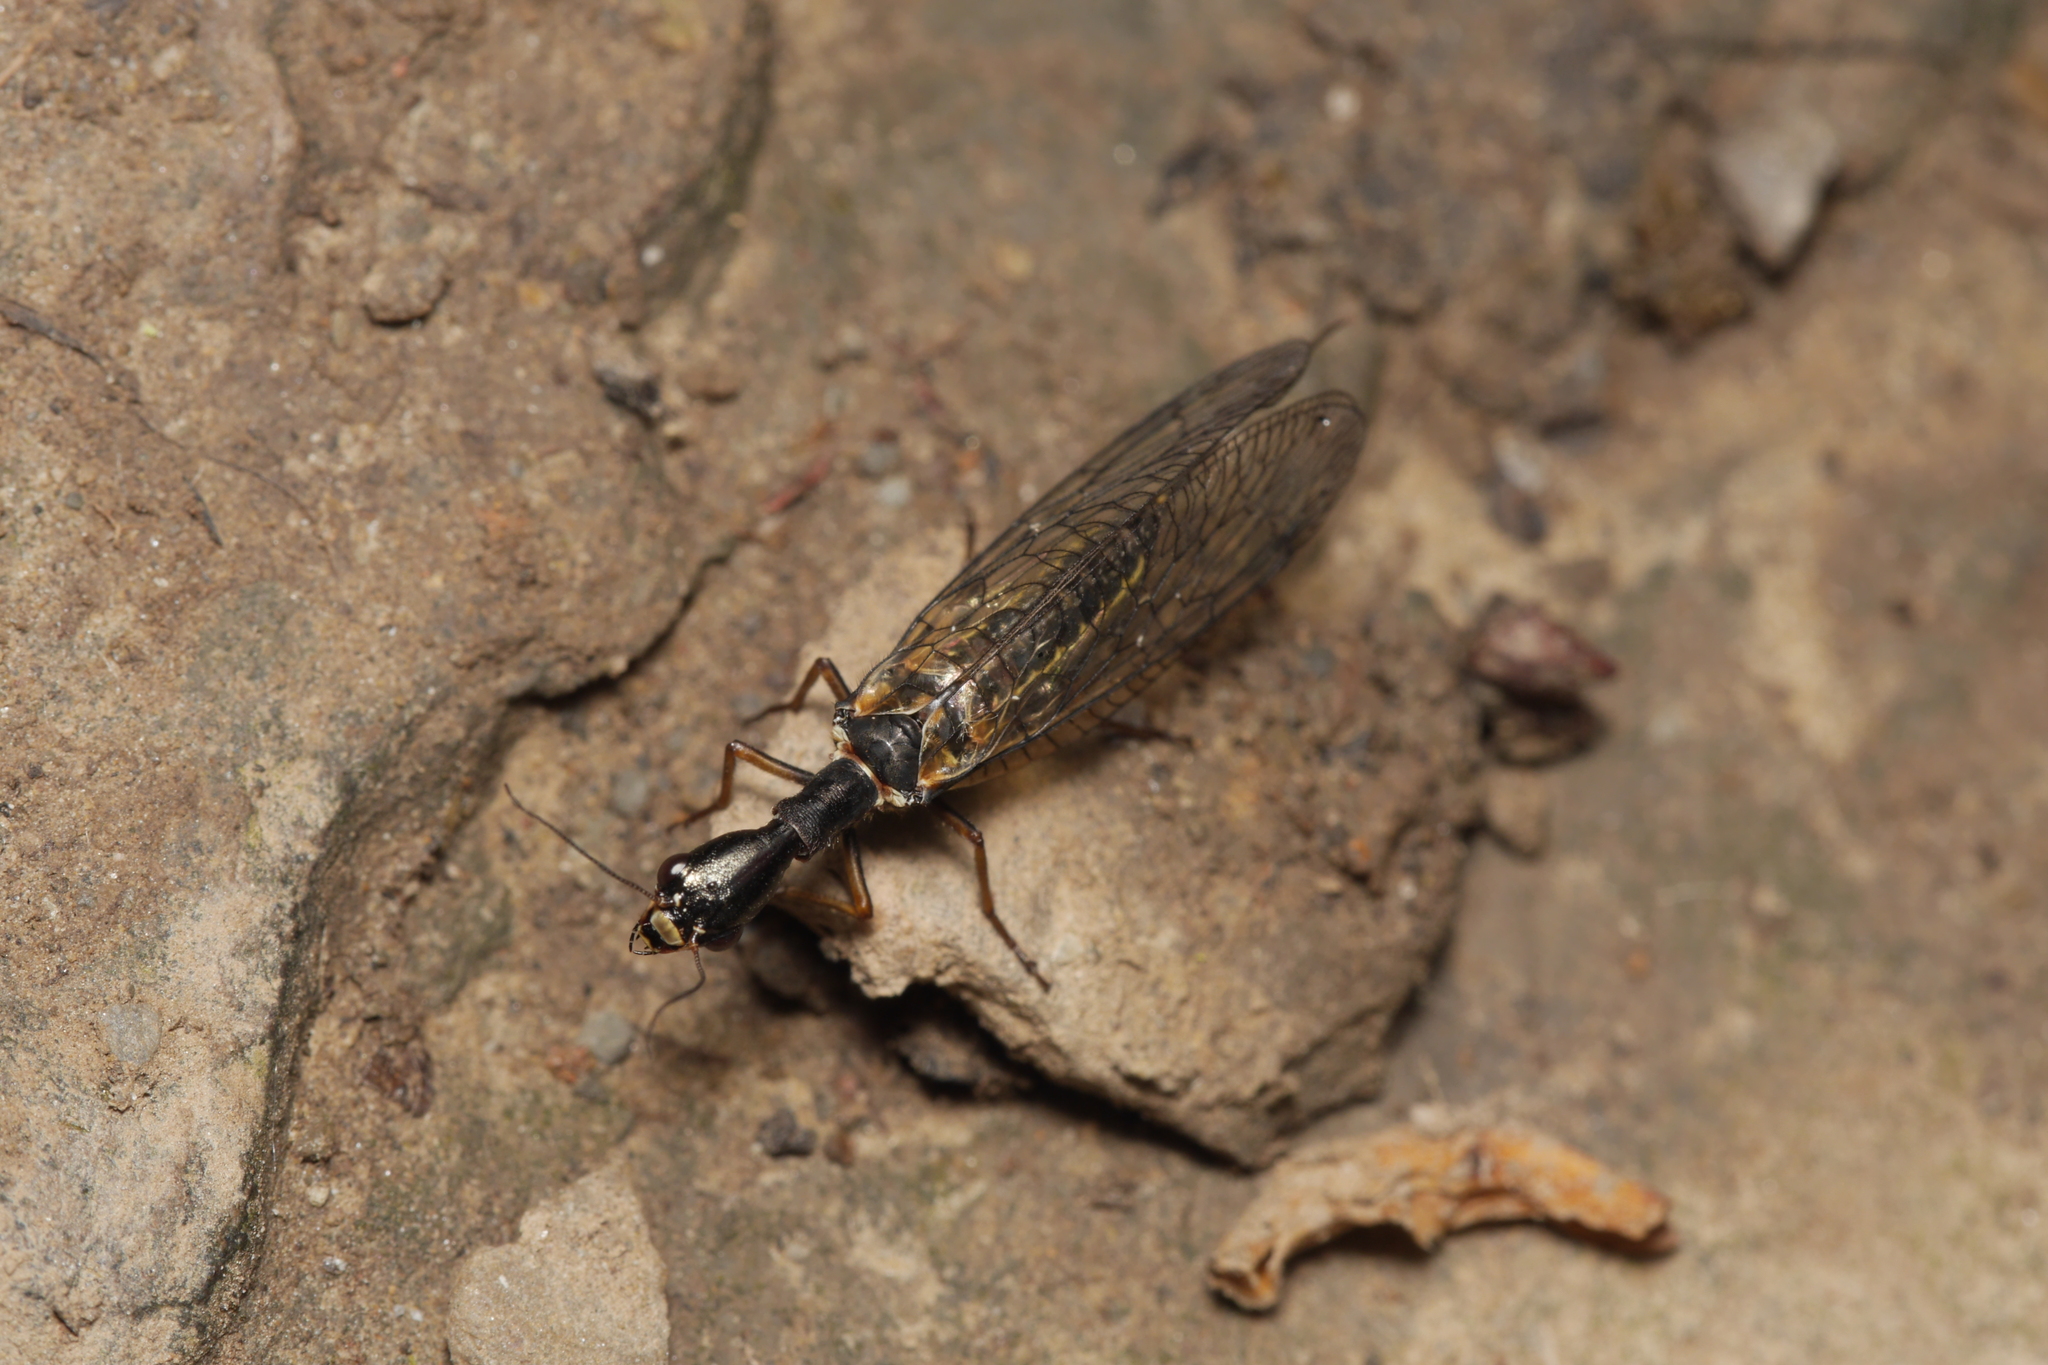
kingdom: Animalia
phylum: Arthropoda
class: Insecta
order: Raphidioptera
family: Raphidiidae
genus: Phaeostigma
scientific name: Phaeostigma notatum
